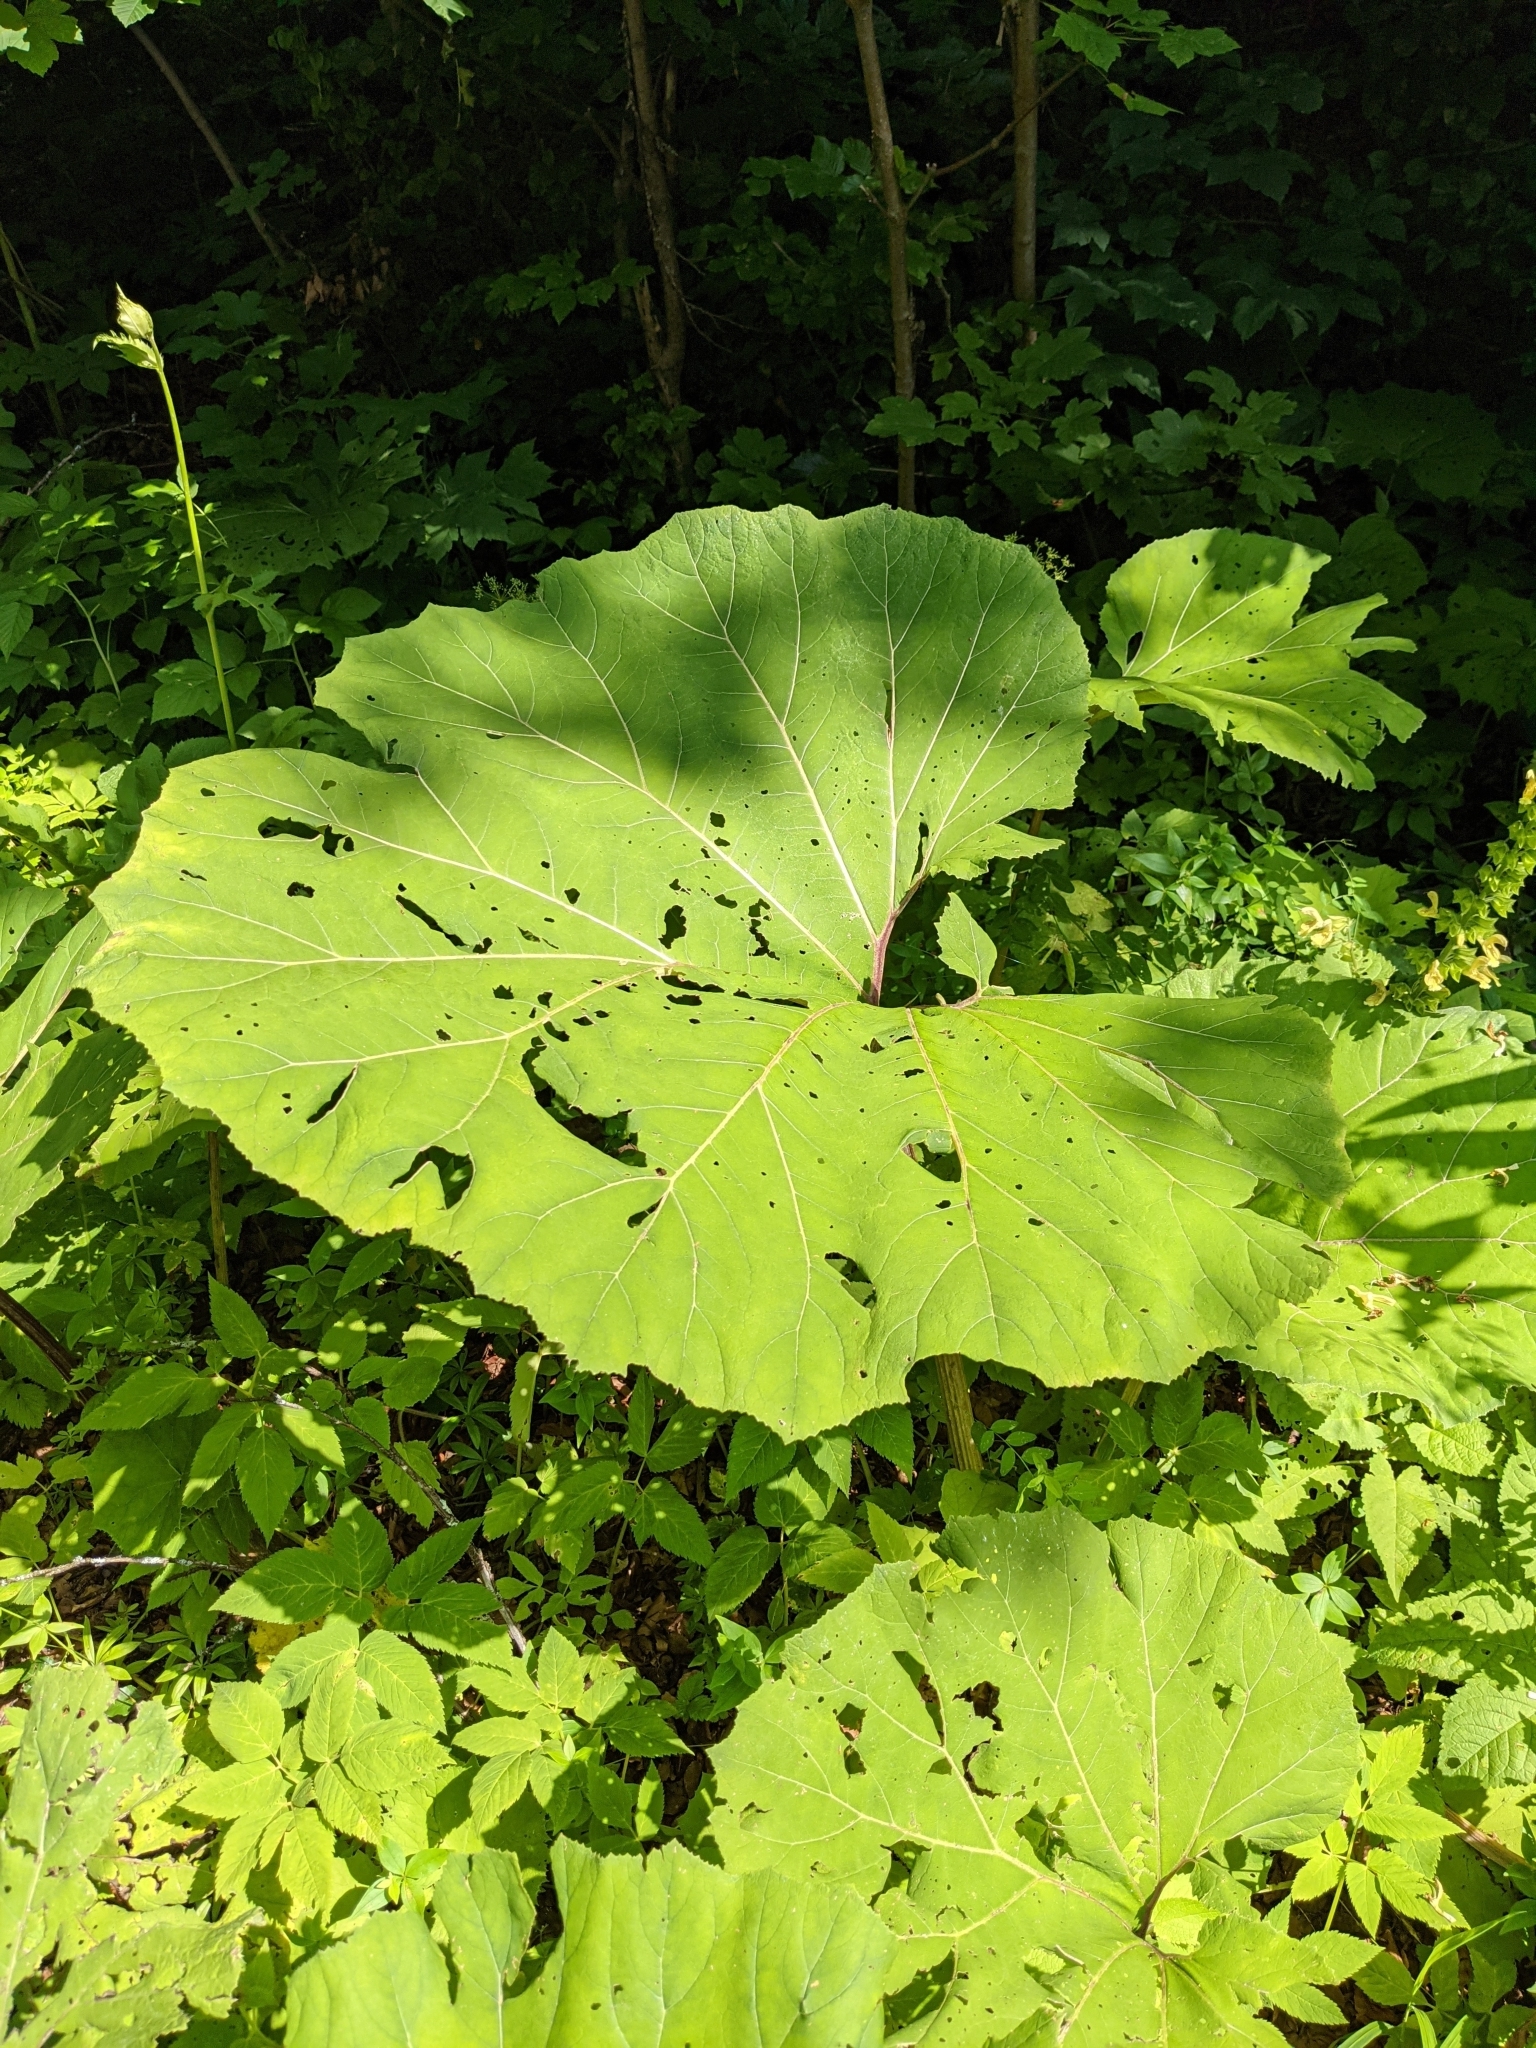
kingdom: Plantae
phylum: Tracheophyta
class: Magnoliopsida
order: Asterales
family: Asteraceae
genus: Petasites
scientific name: Petasites hybridus
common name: Butterbur
